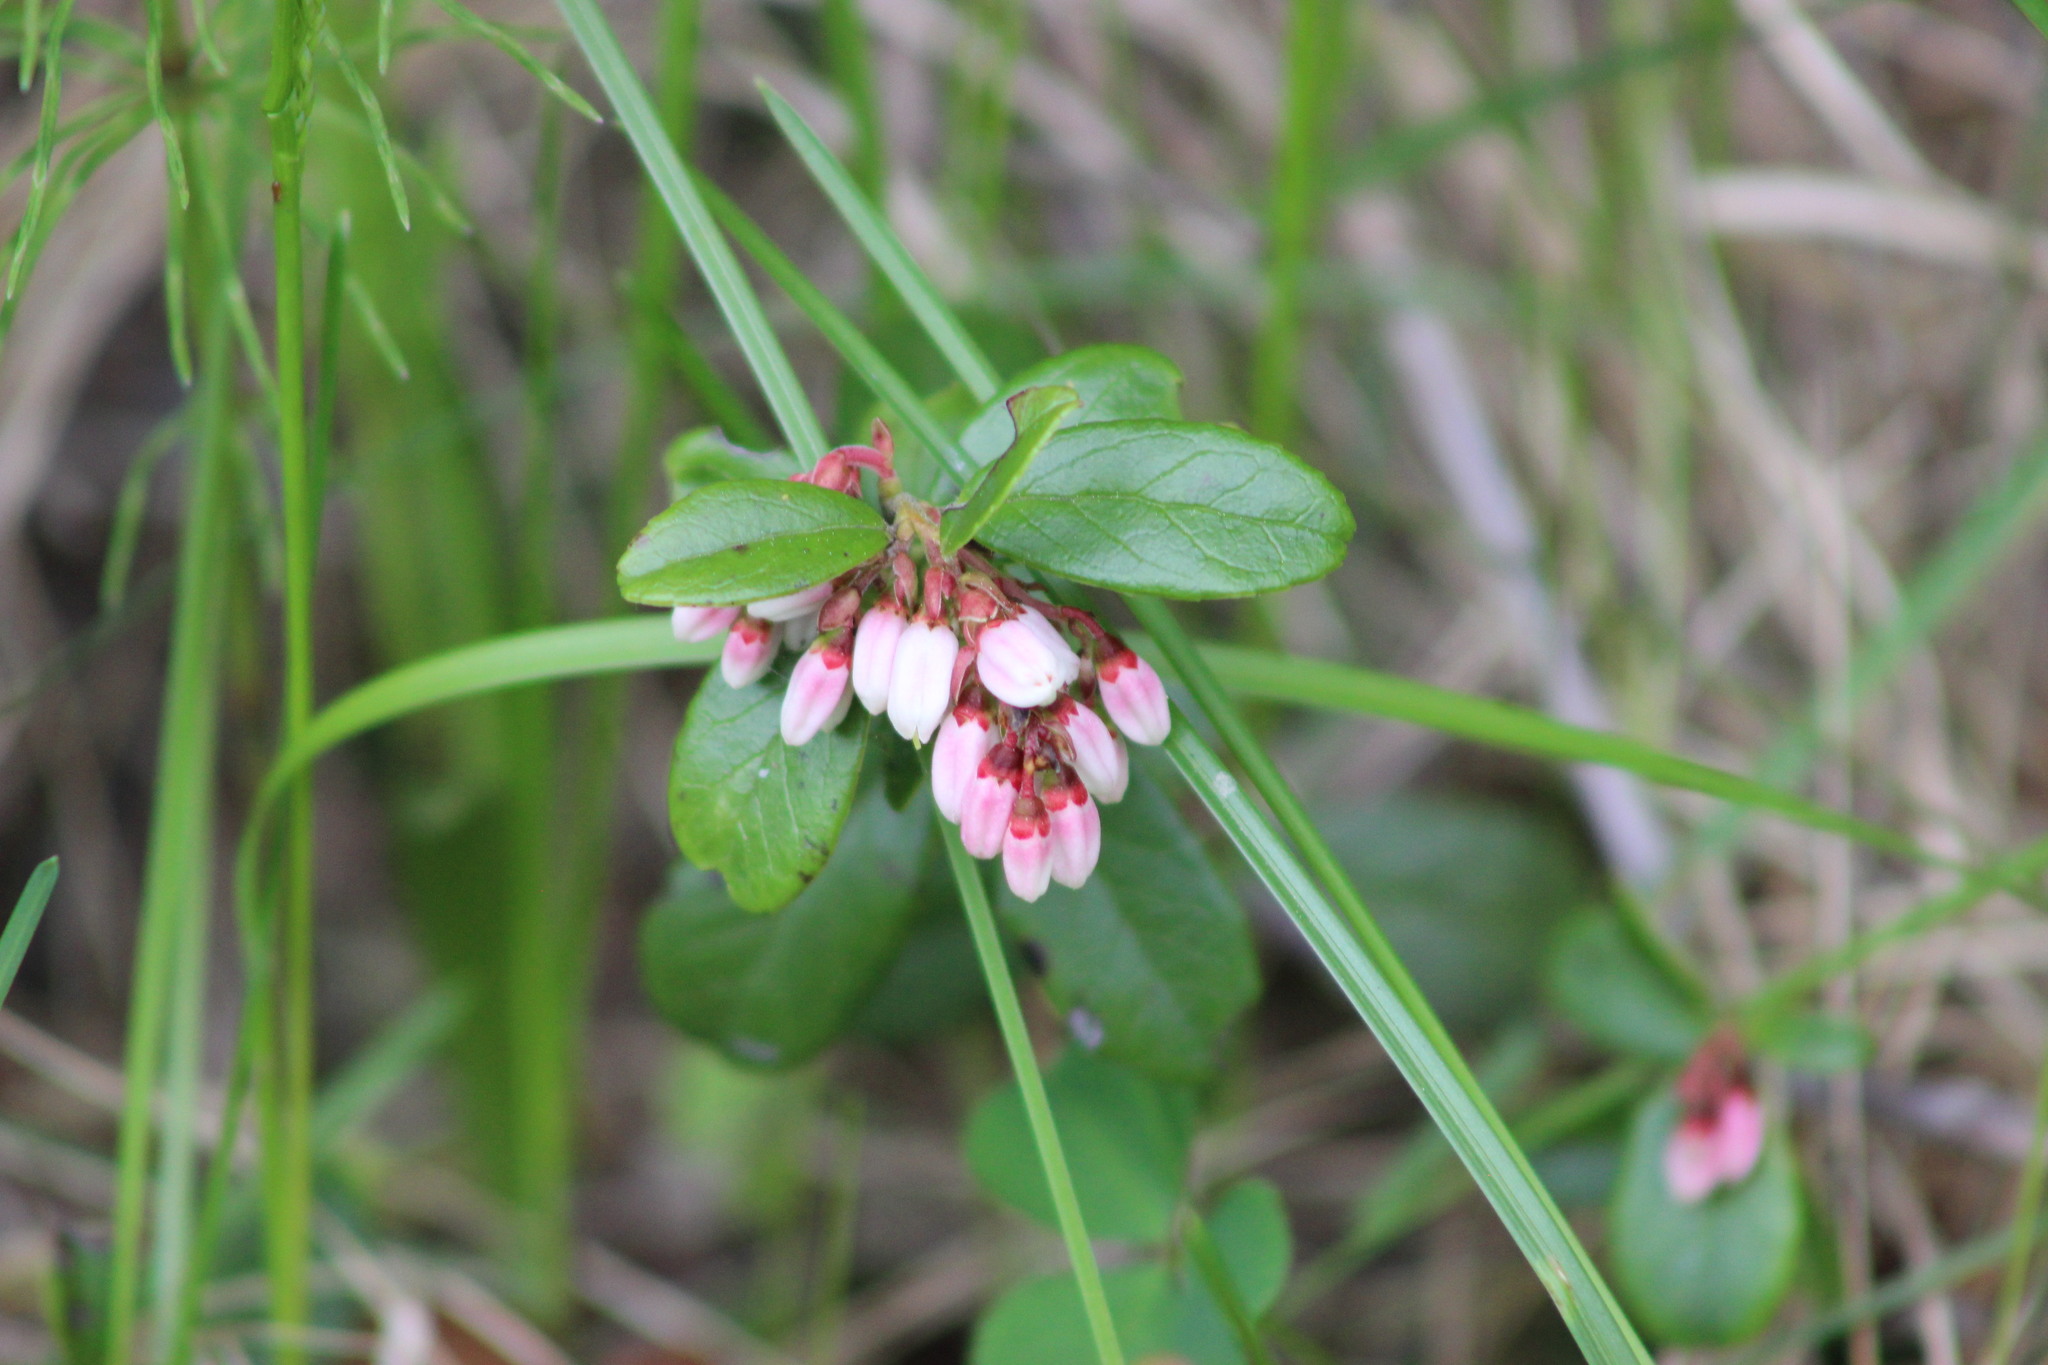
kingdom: Plantae
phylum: Tracheophyta
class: Magnoliopsida
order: Ericales
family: Ericaceae
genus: Vaccinium
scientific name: Vaccinium vitis-idaea
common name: Cowberry
